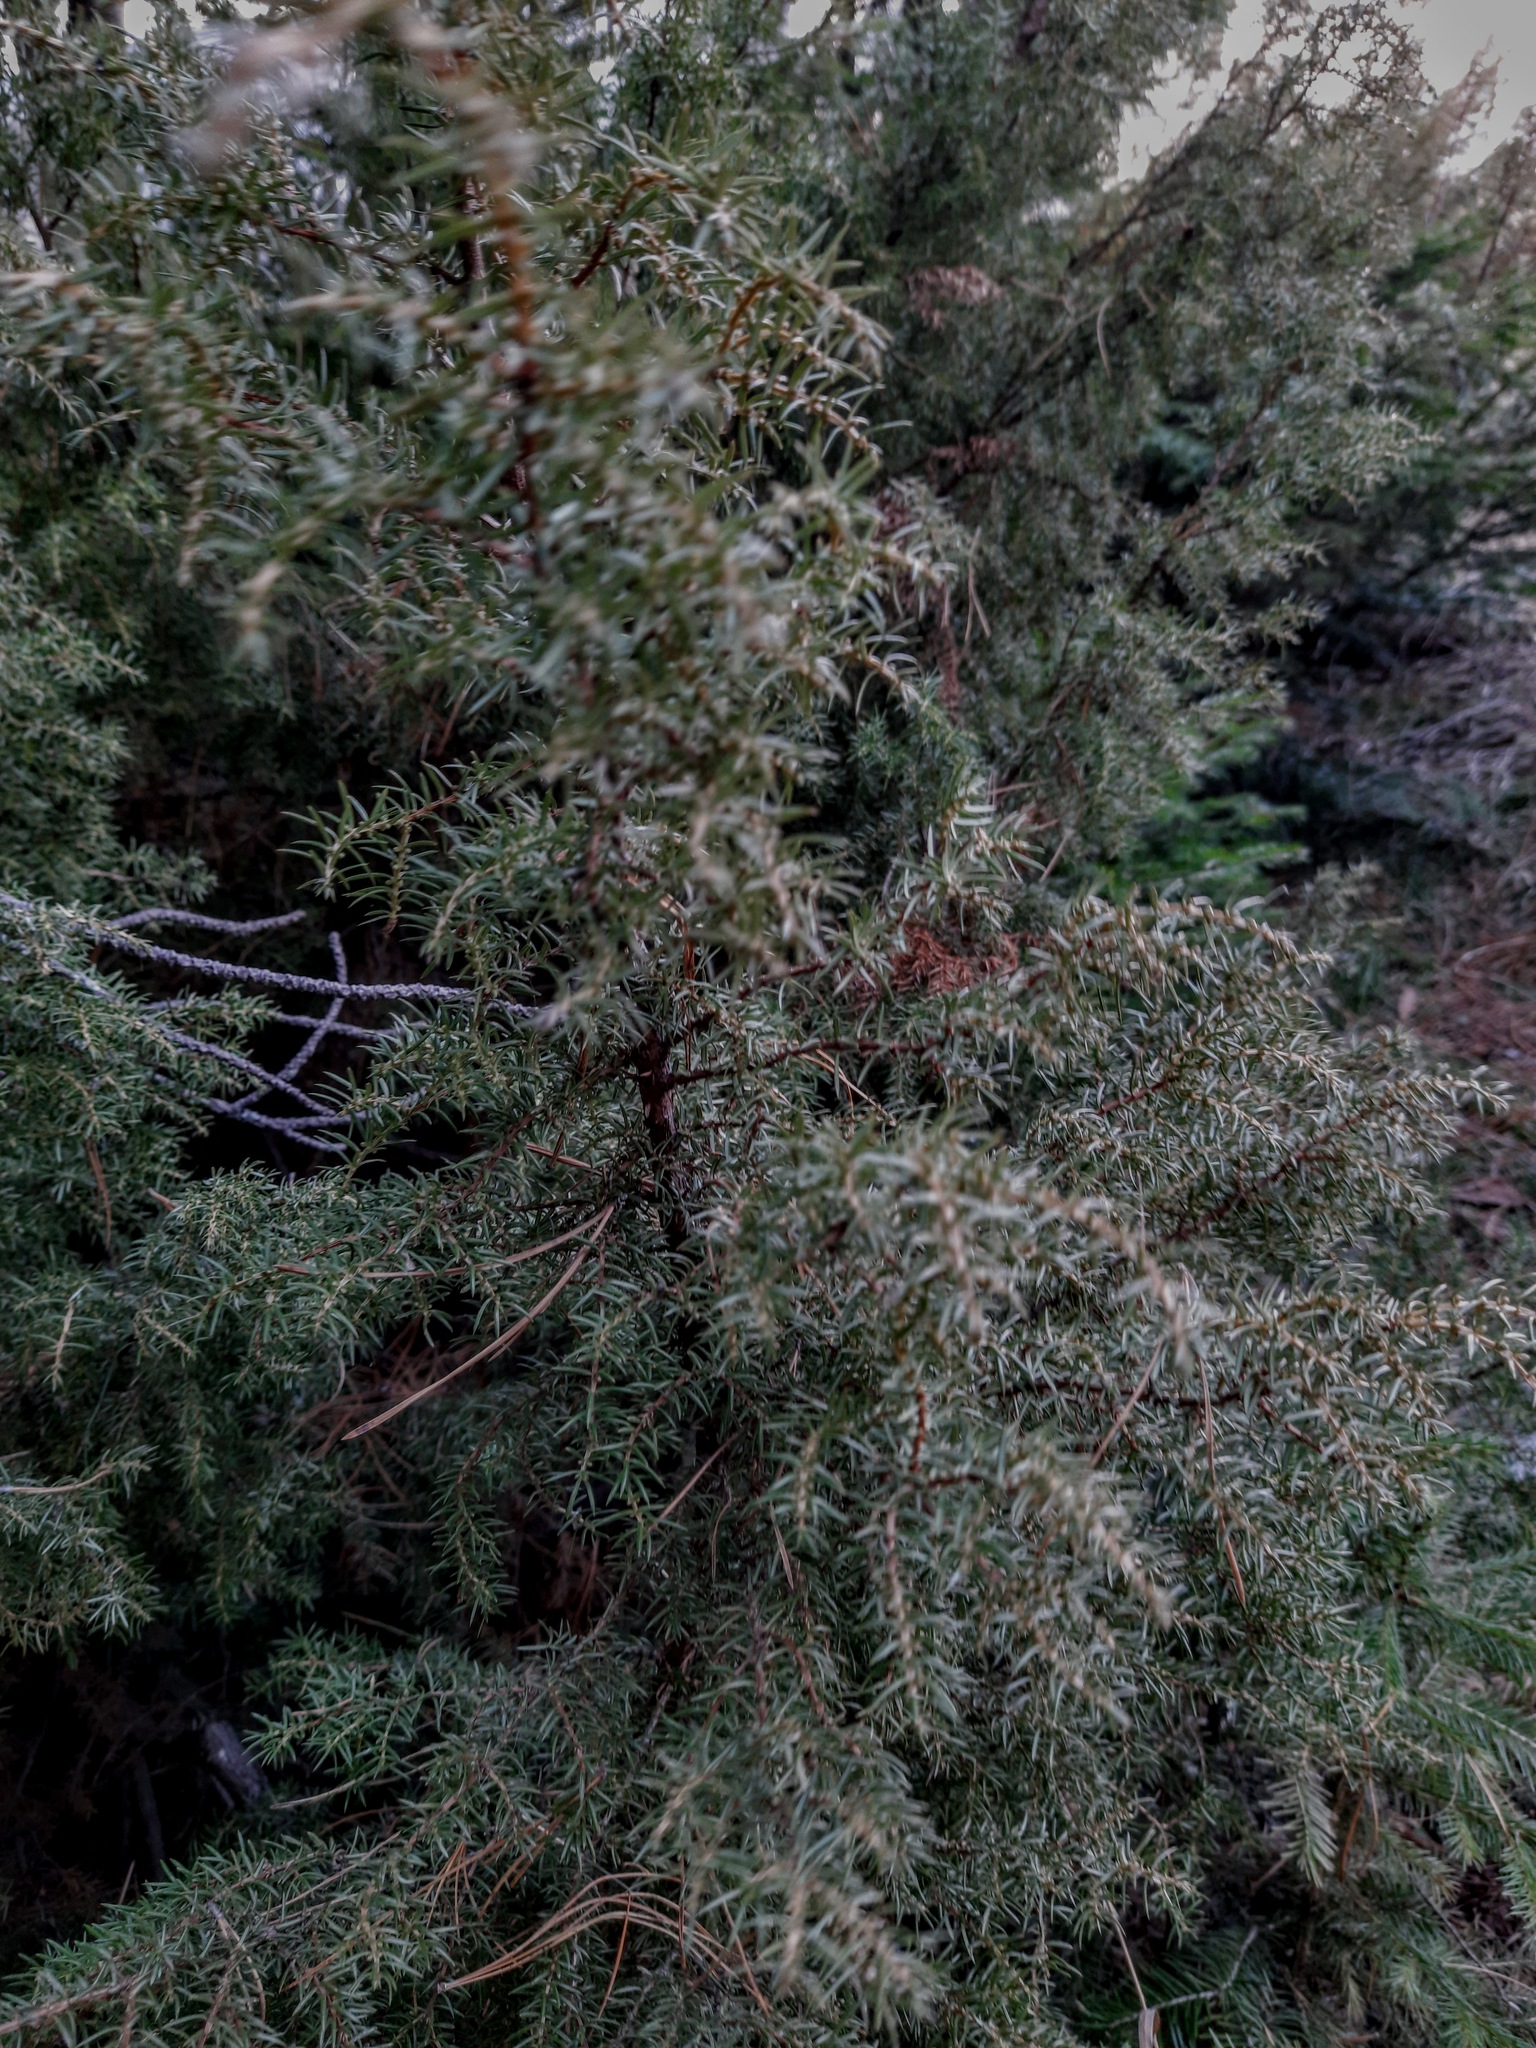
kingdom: Plantae
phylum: Tracheophyta
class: Pinopsida
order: Pinales
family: Cupressaceae
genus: Juniperus
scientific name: Juniperus communis
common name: Common juniper
